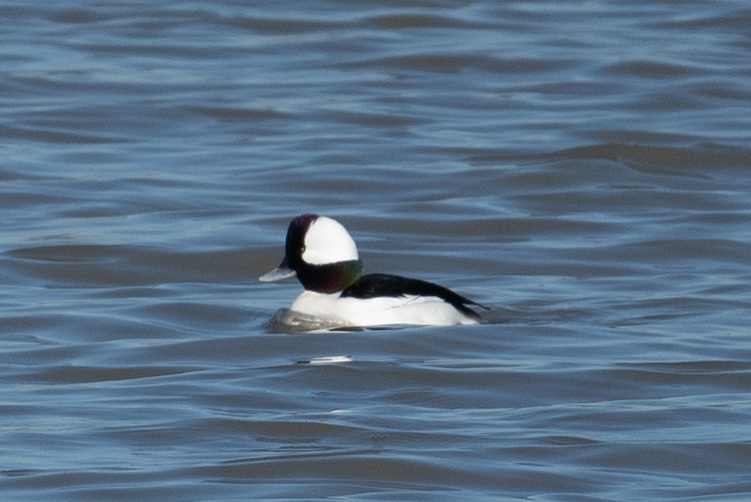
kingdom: Animalia
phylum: Chordata
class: Aves
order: Anseriformes
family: Anatidae
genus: Bucephala
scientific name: Bucephala albeola
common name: Bufflehead
